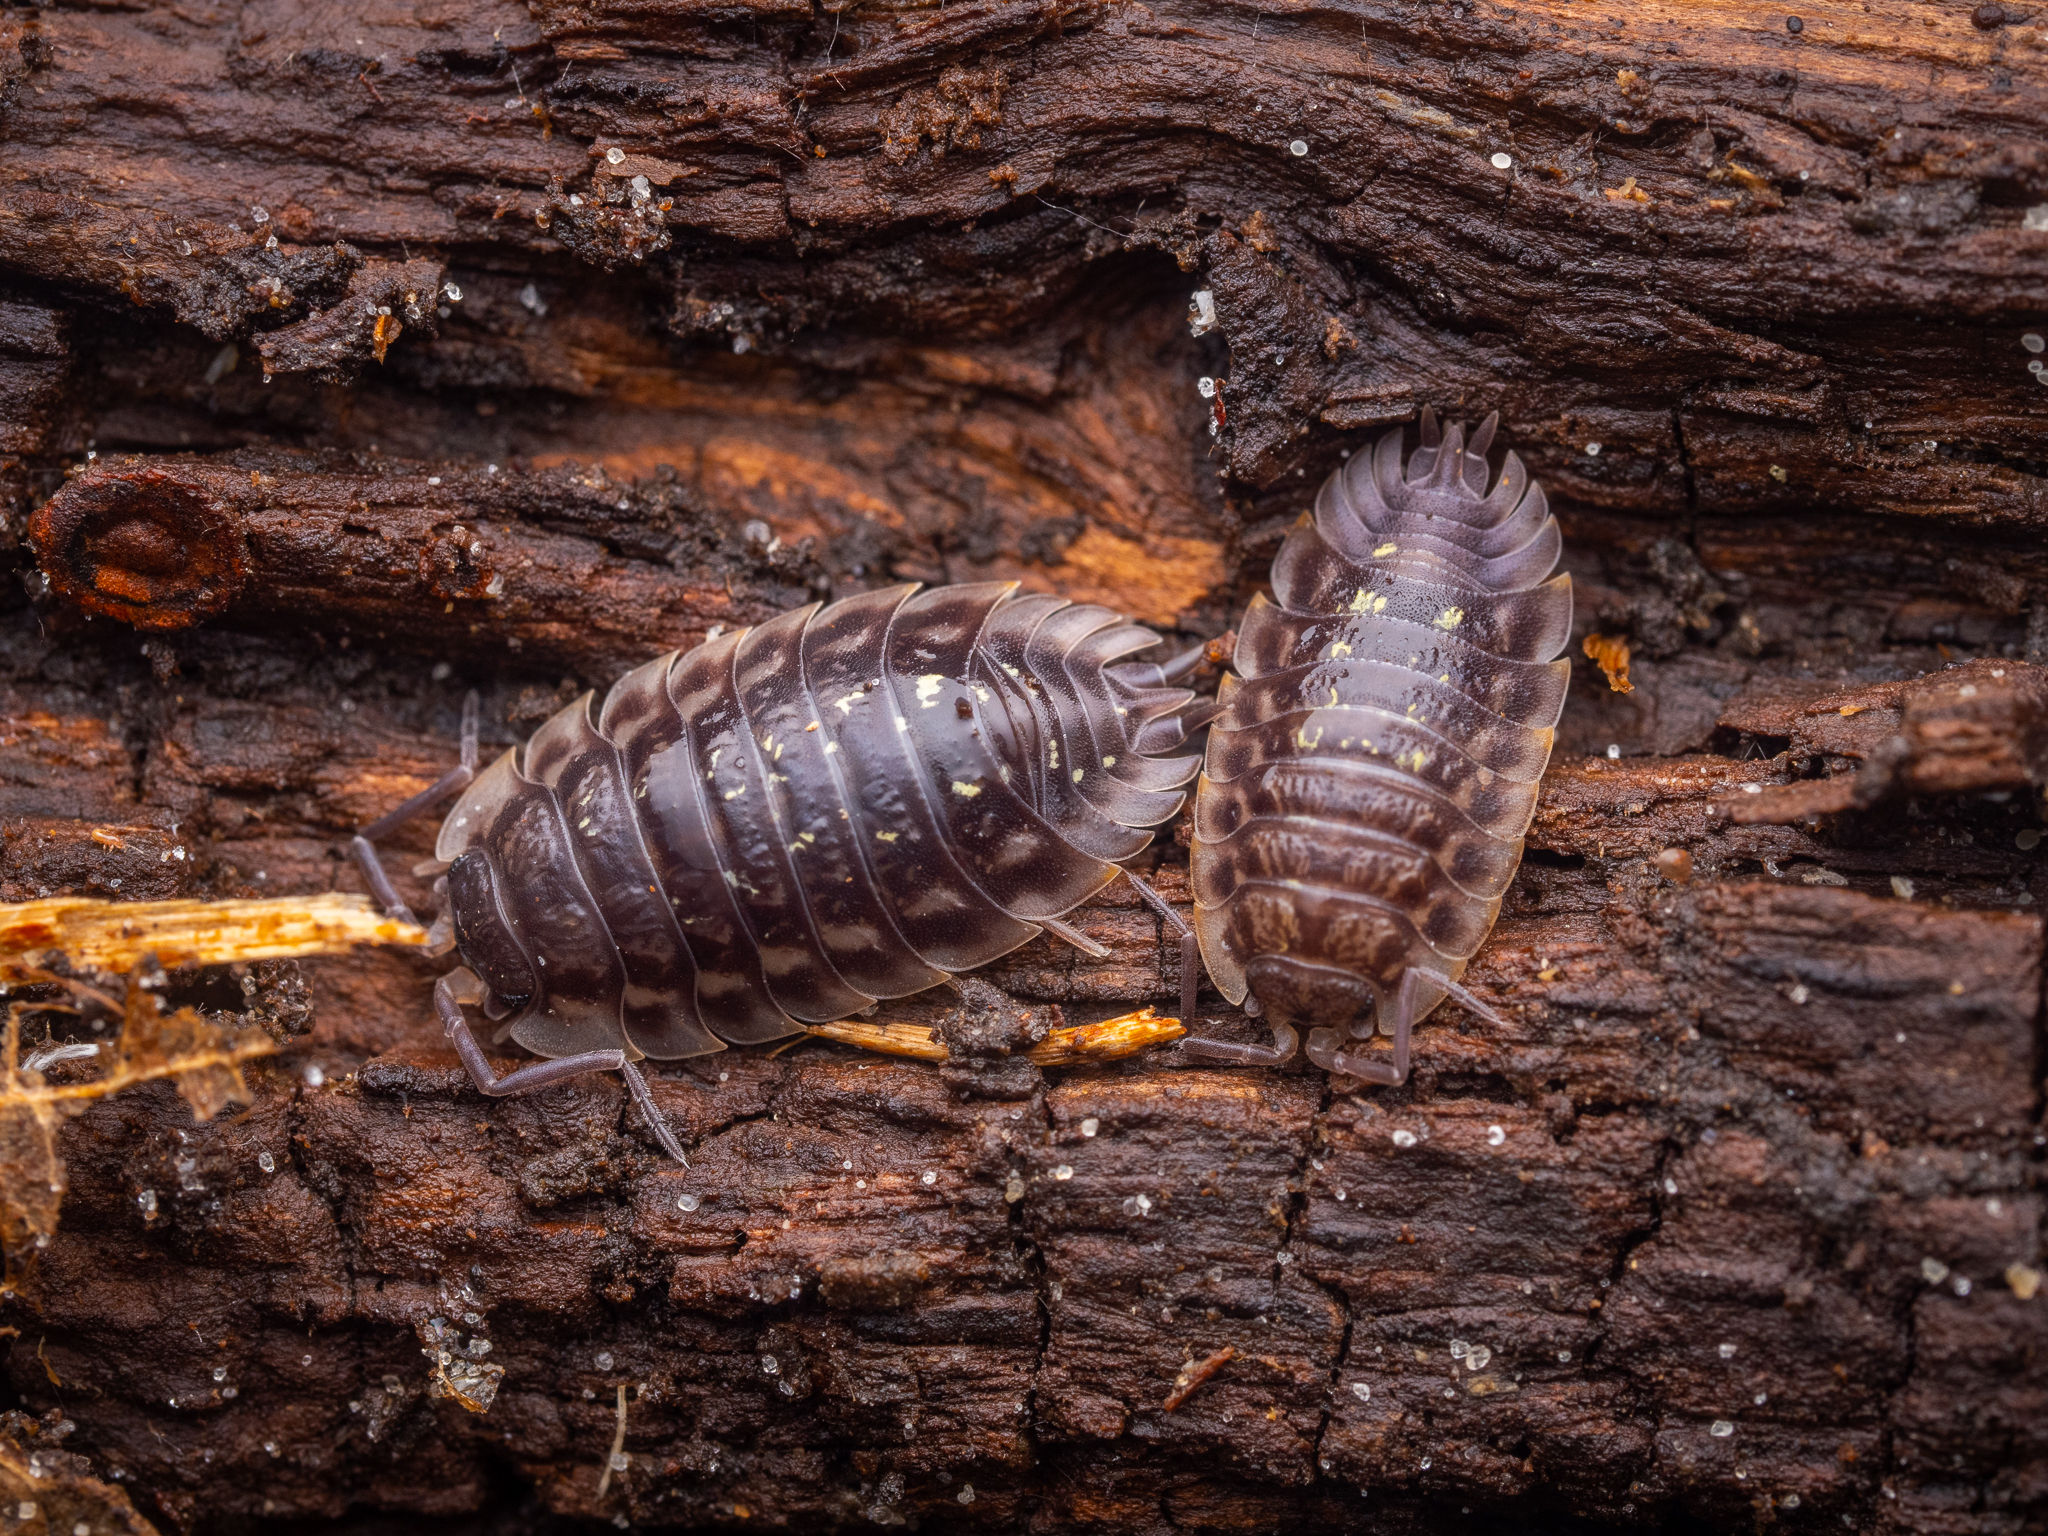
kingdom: Animalia
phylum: Arthropoda
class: Malacostraca
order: Isopoda
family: Oniscidae
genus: Oniscus
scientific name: Oniscus asellus
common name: Common shiny woodlouse
